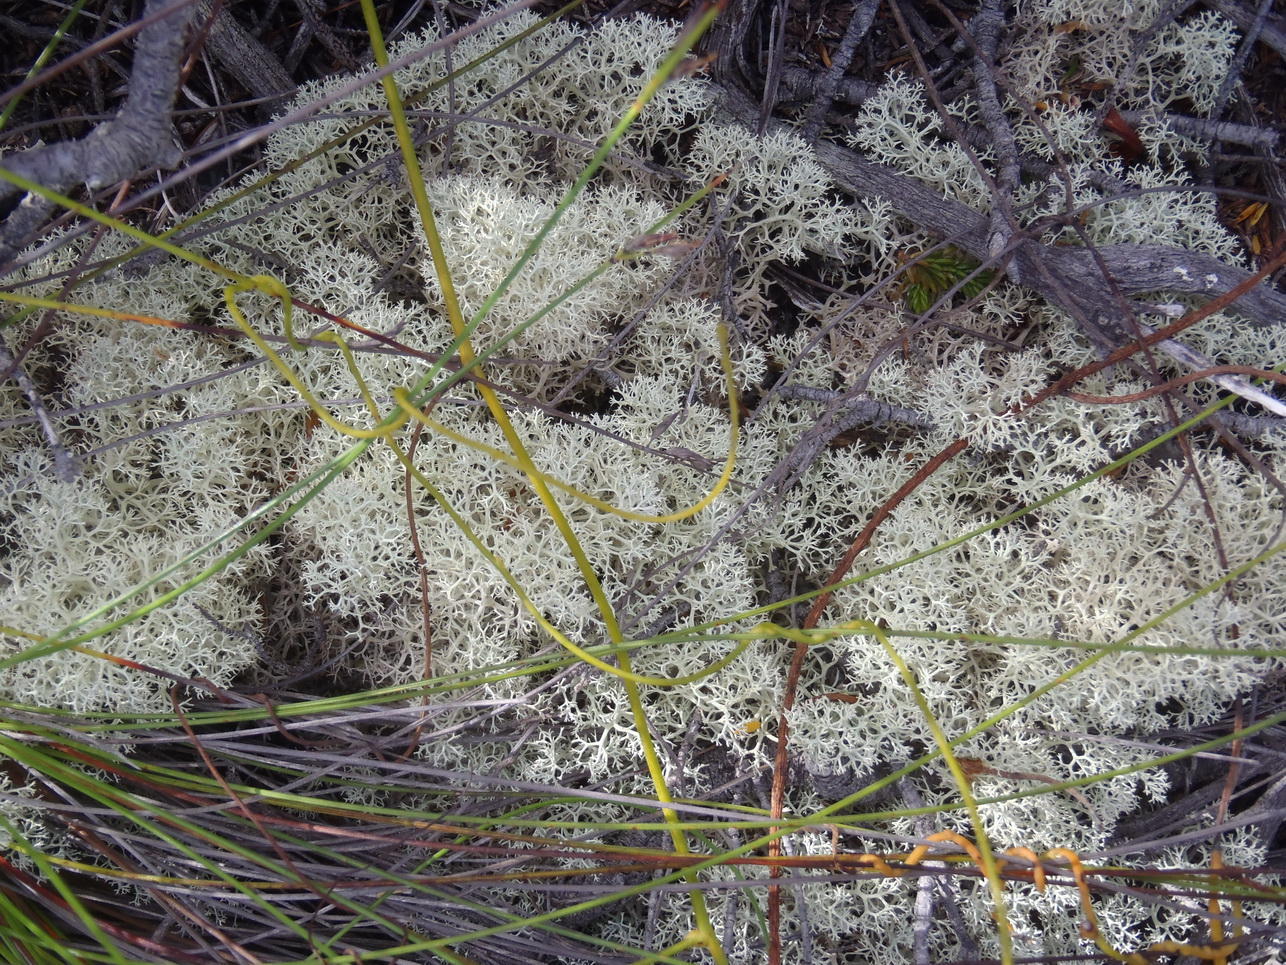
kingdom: Fungi
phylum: Ascomycota
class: Lecanoromycetes
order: Lecanorales
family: Cladoniaceae
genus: Cladonia
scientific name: Cladonia confusa
